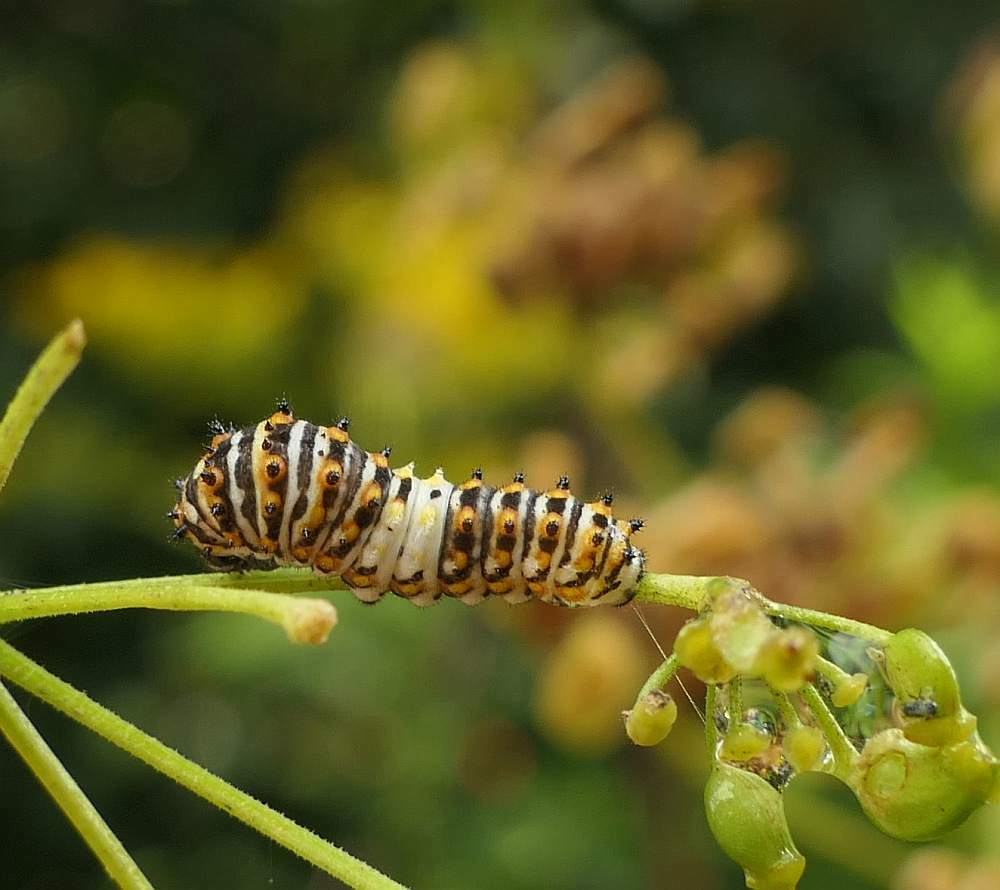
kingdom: Animalia
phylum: Arthropoda
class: Insecta
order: Lepidoptera
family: Papilionidae
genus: Papilio
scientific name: Papilio polyxenes
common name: Black swallowtail
